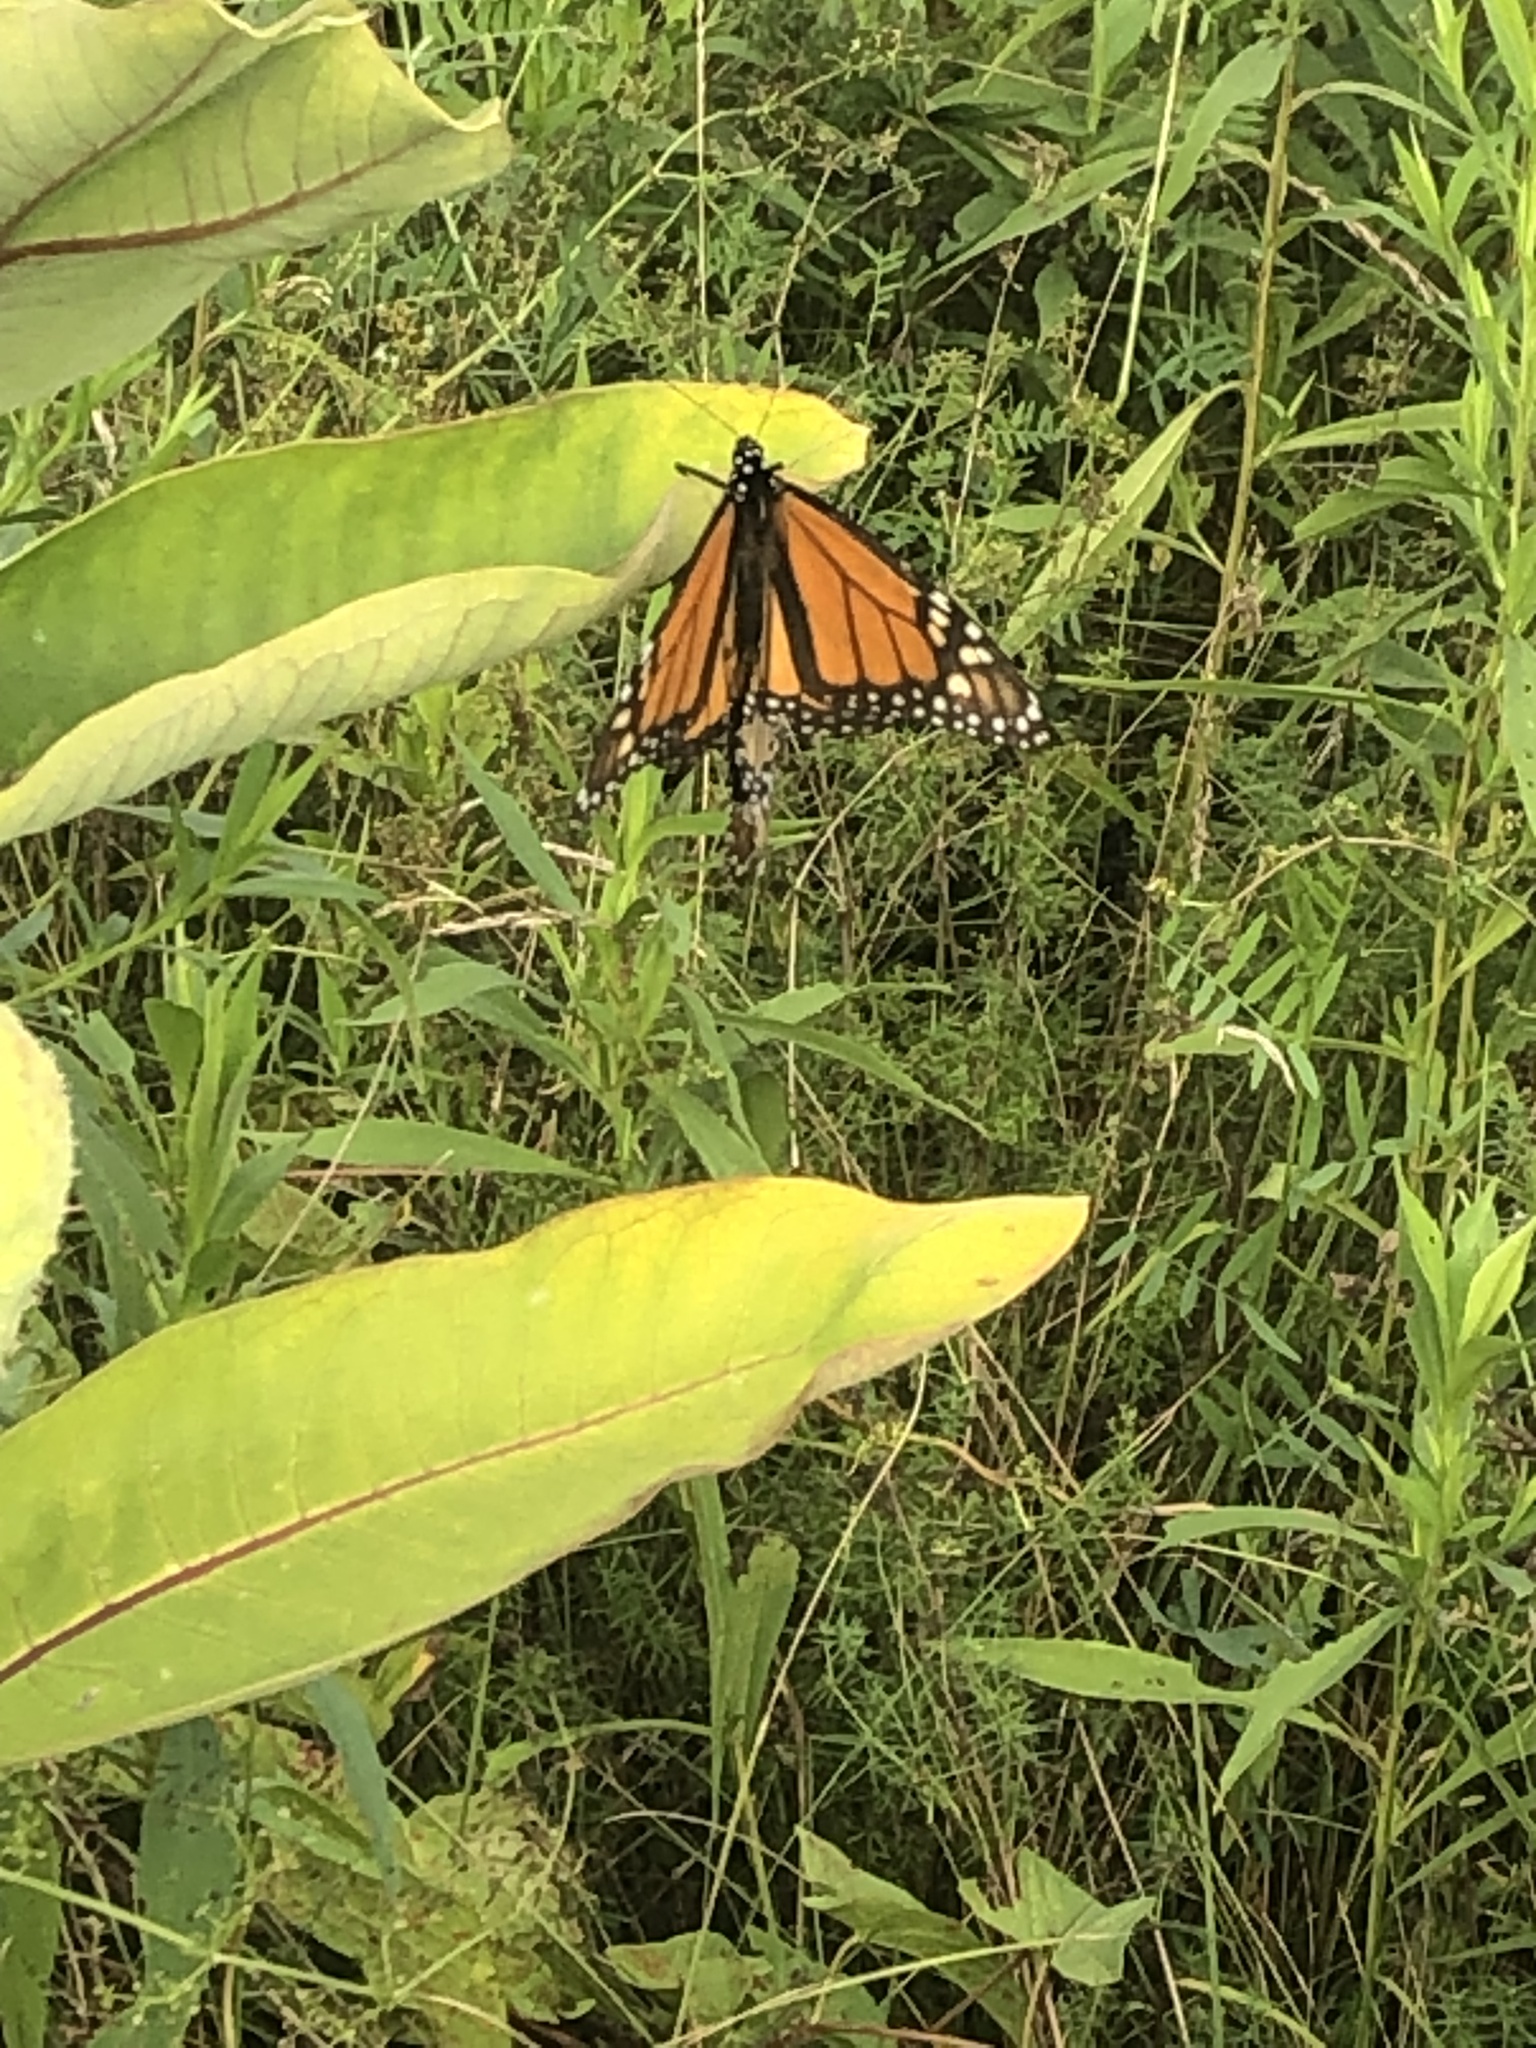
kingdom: Animalia
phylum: Arthropoda
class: Insecta
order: Lepidoptera
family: Nymphalidae
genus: Danaus
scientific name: Danaus plexippus
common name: Monarch
